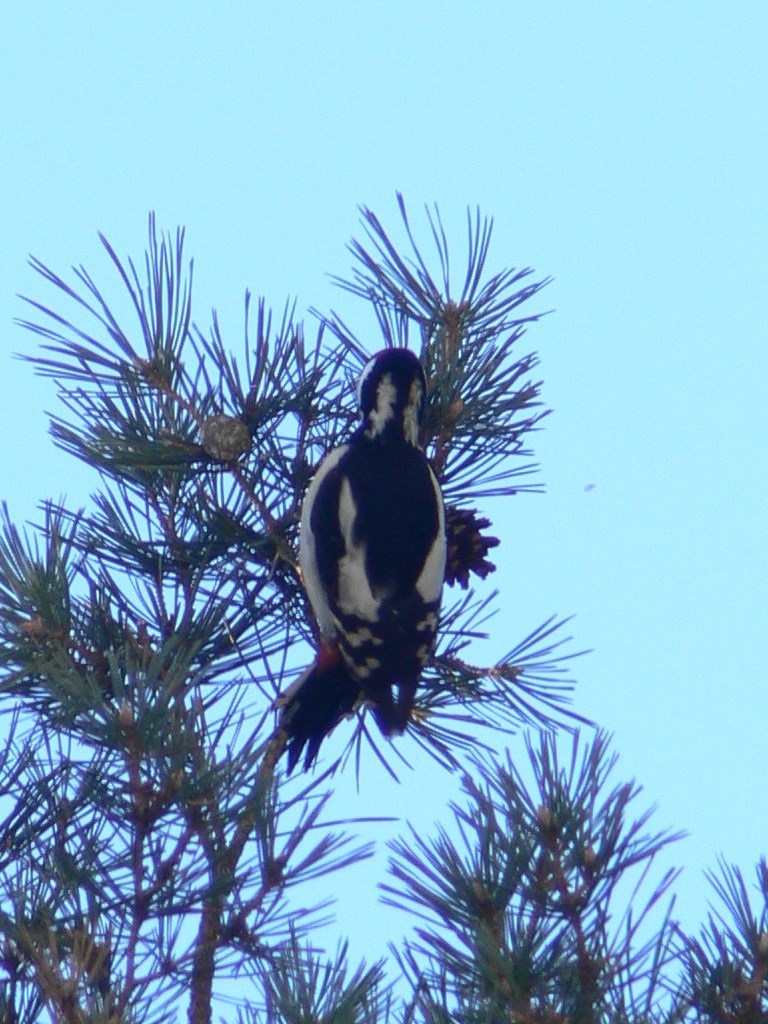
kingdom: Animalia
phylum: Chordata
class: Aves
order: Piciformes
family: Picidae
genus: Dendrocopos
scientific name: Dendrocopos major
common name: Great spotted woodpecker
